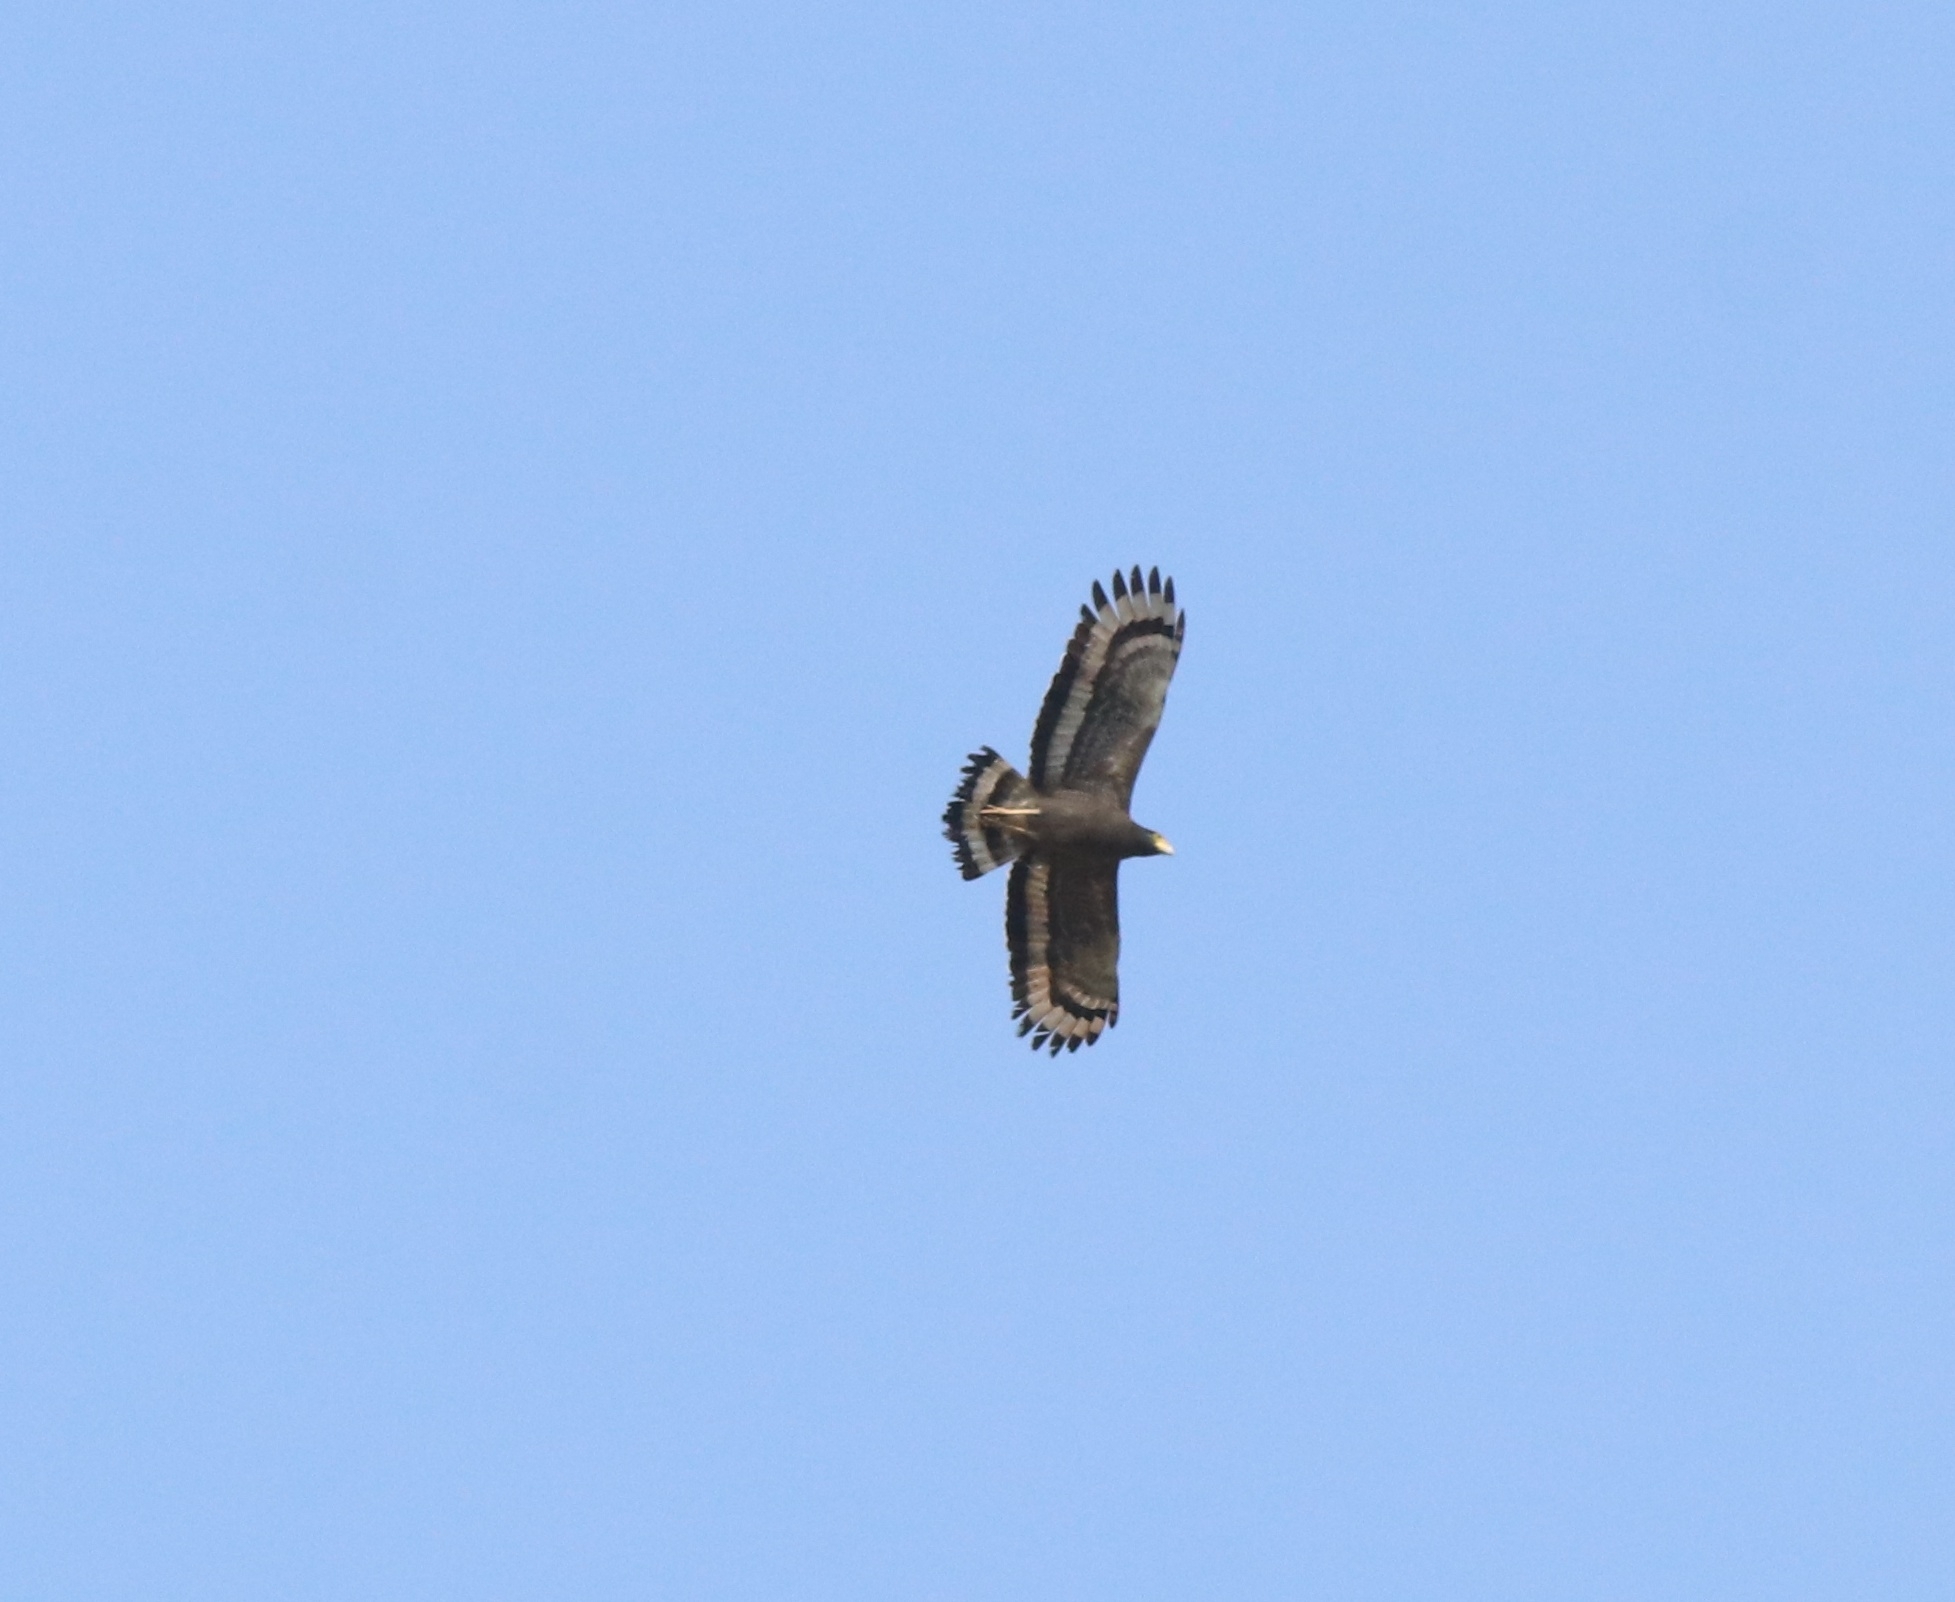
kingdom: Animalia
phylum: Chordata
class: Aves
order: Accipitriformes
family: Accipitridae
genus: Spilornis
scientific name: Spilornis cheela
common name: Crested serpent eagle
